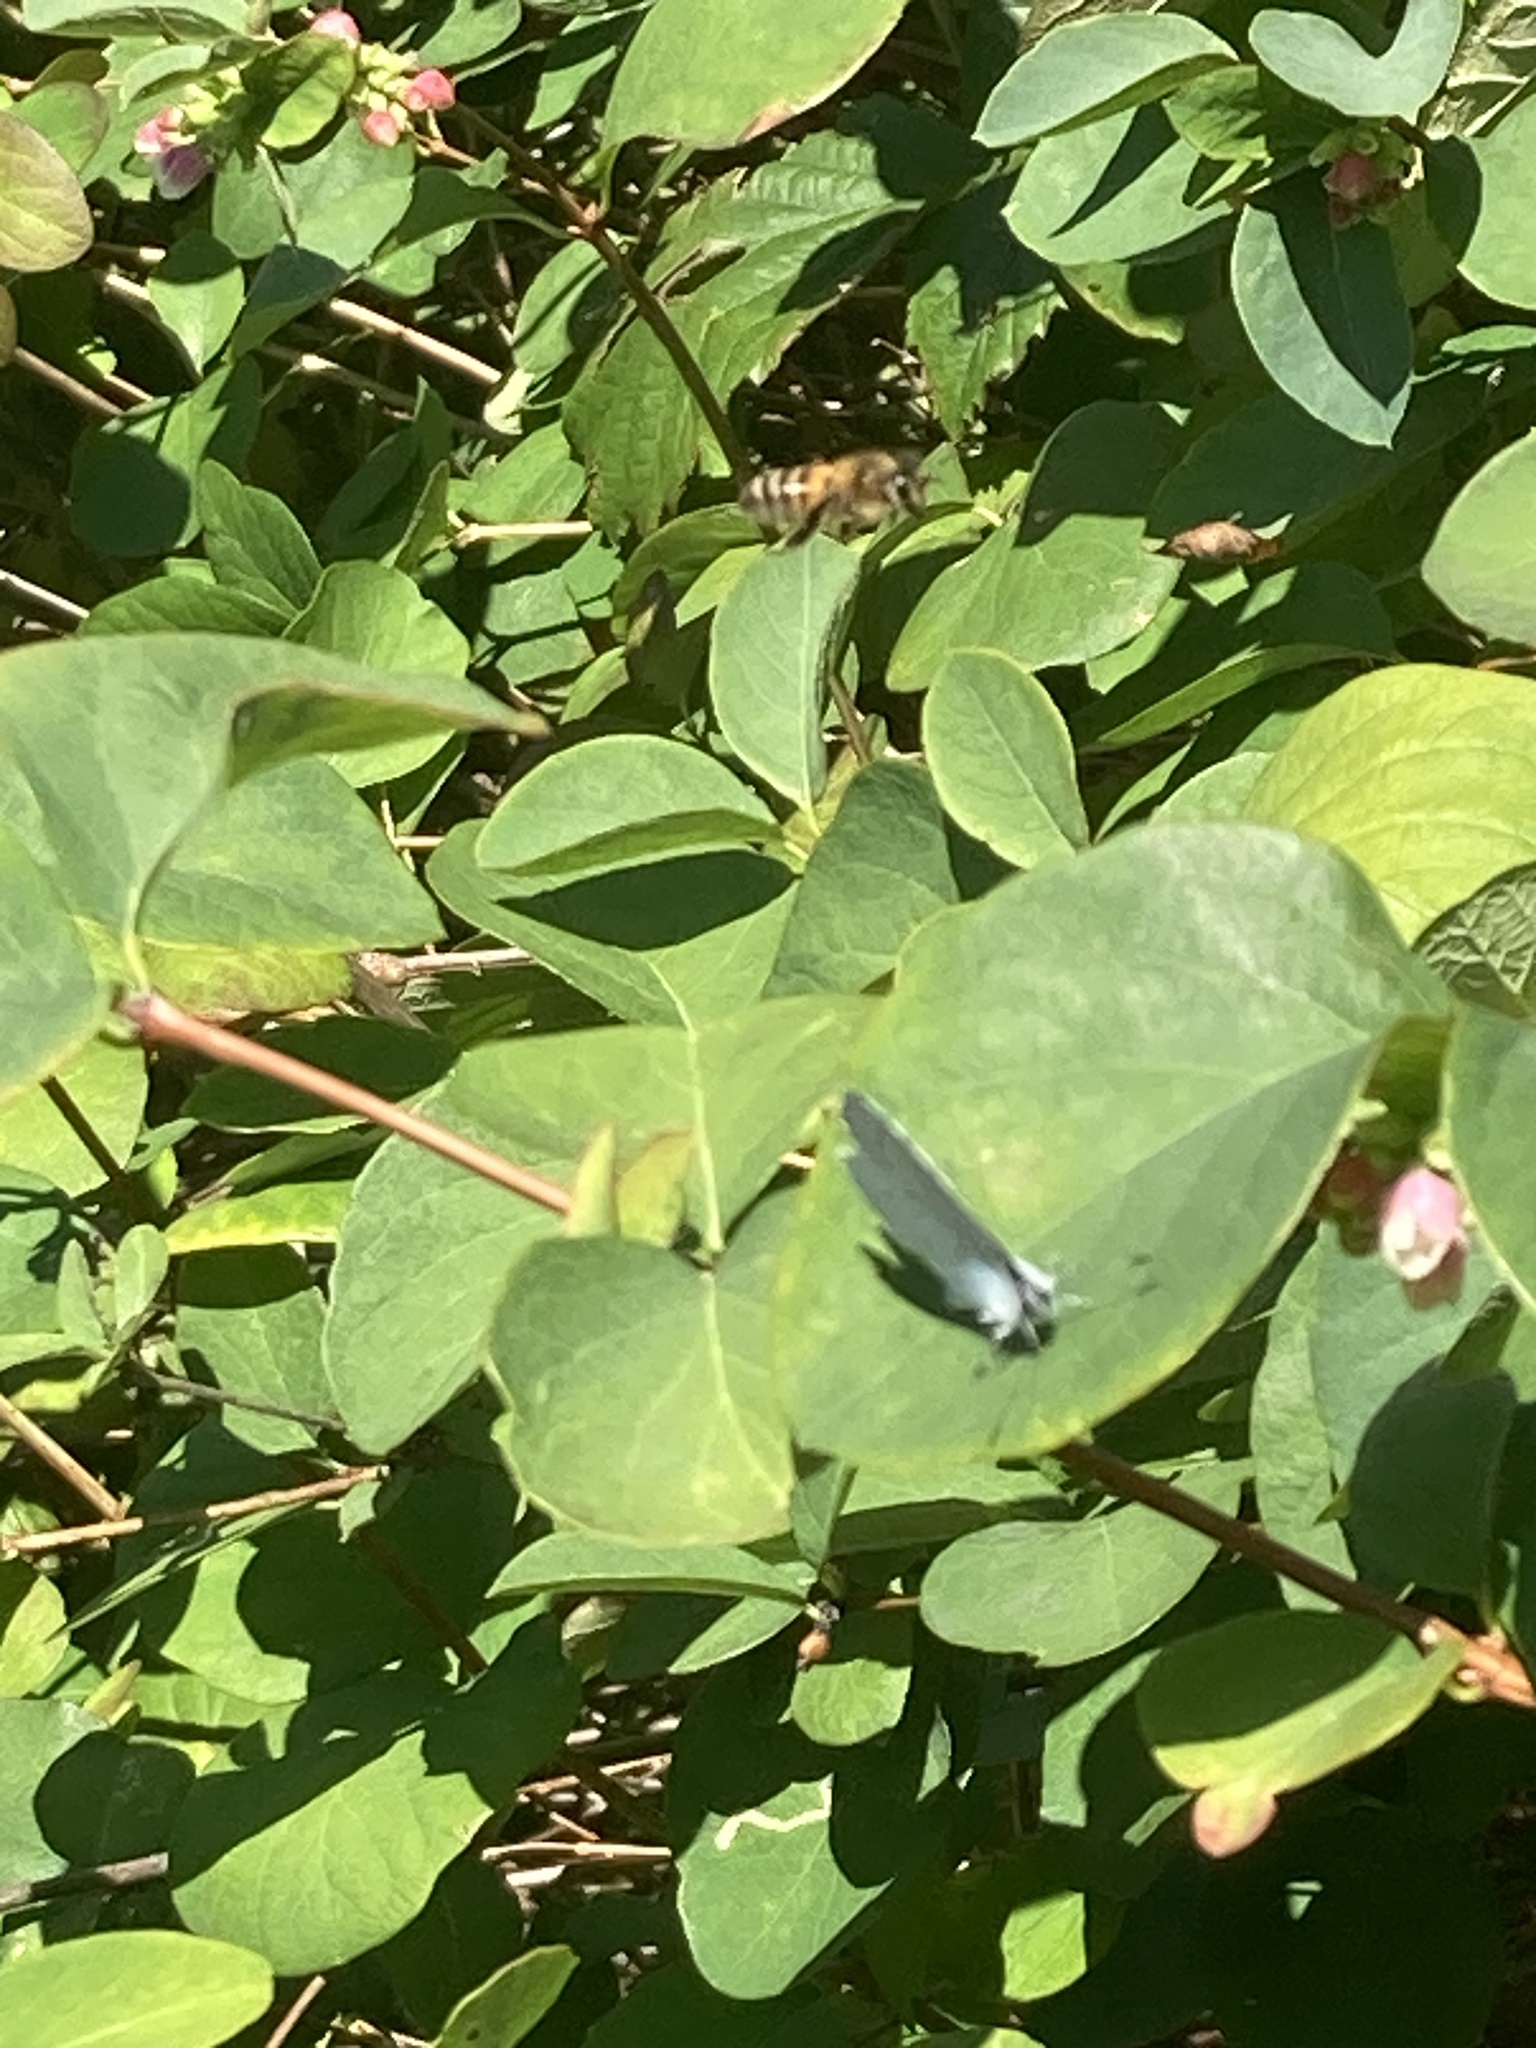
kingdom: Animalia
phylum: Arthropoda
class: Insecta
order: Lepidoptera
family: Lycaenidae
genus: Celastrina
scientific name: Celastrina argiolus
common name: Holly blue
